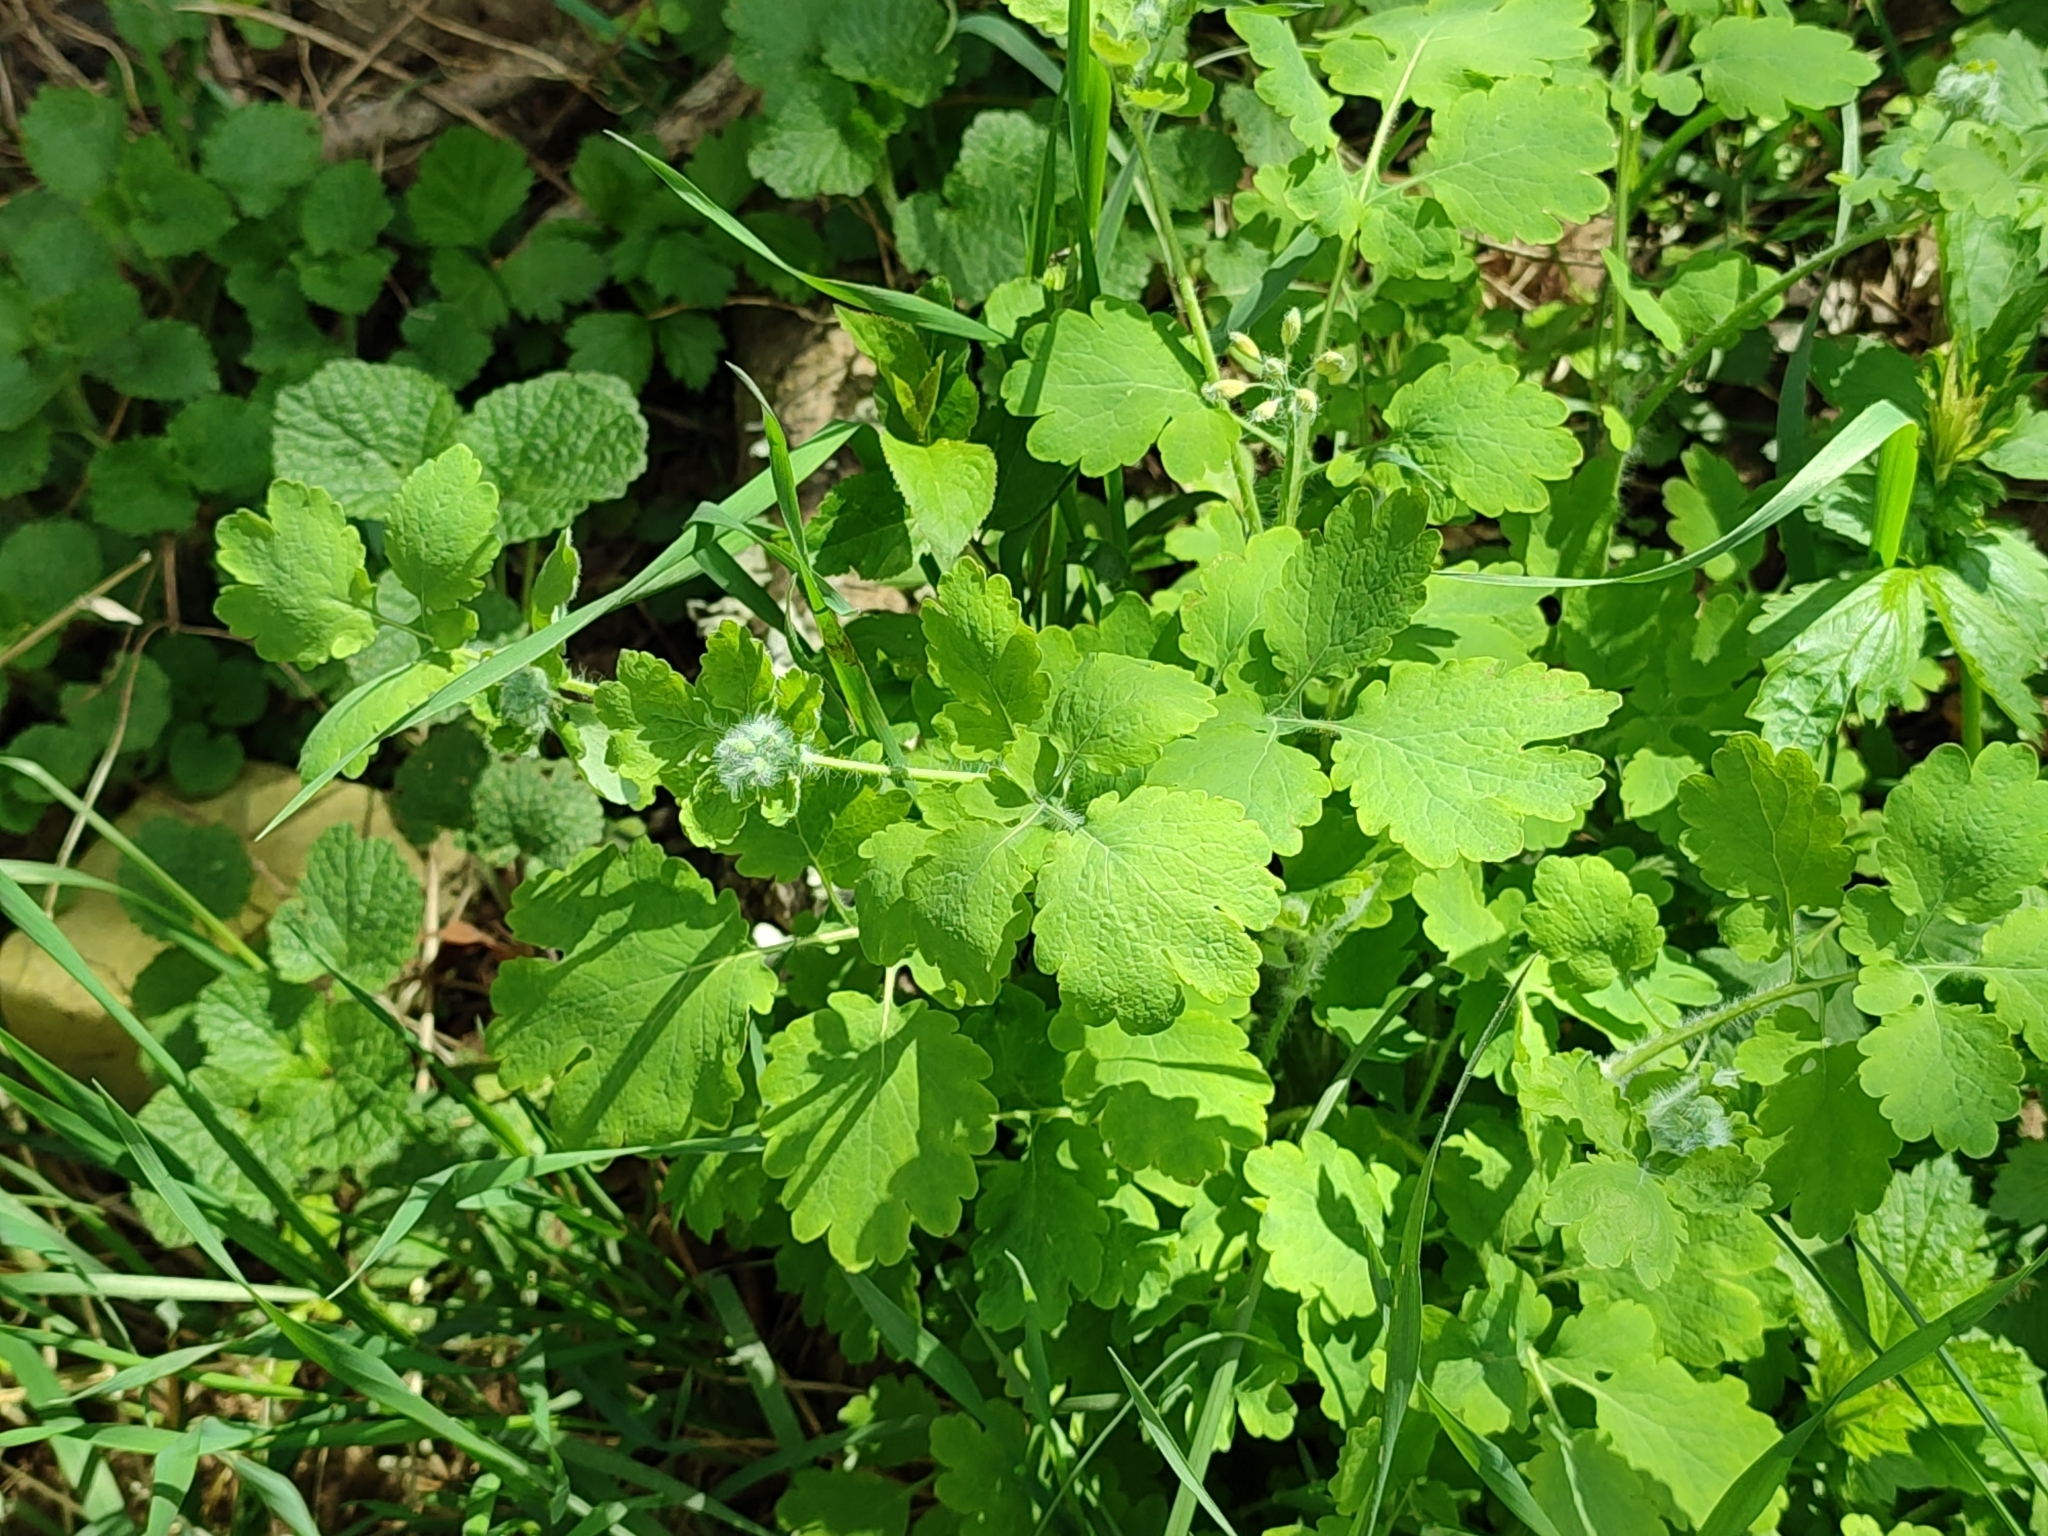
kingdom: Plantae
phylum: Tracheophyta
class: Magnoliopsida
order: Ranunculales
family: Papaveraceae
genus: Chelidonium
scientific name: Chelidonium majus
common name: Greater celandine
